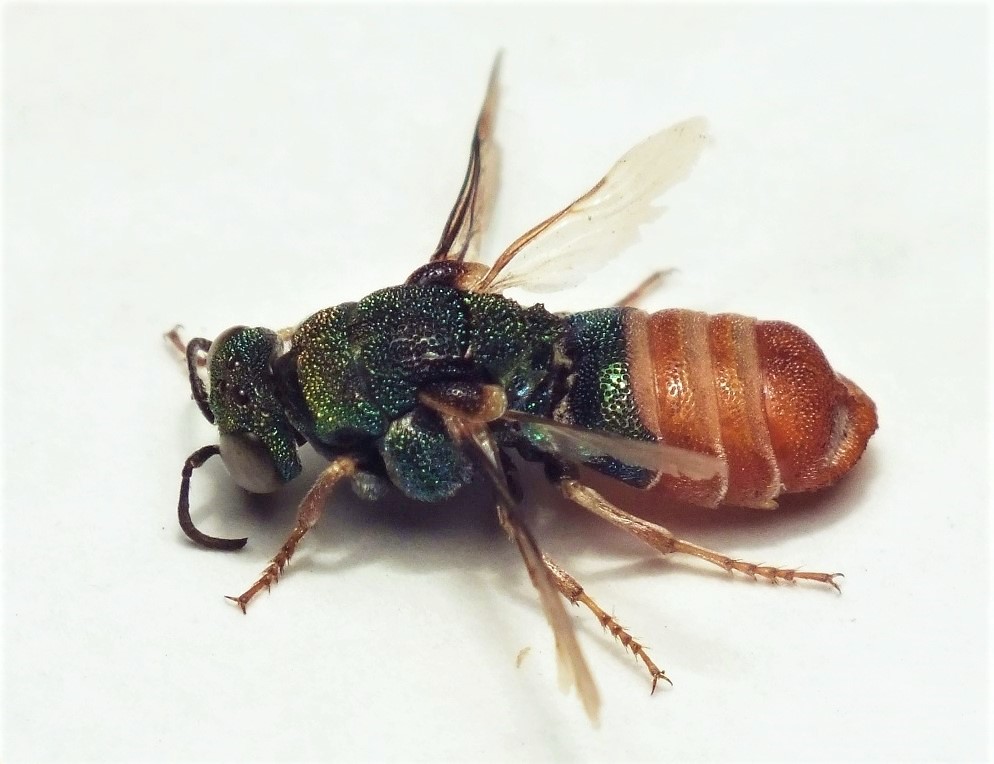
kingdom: Animalia
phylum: Arthropoda
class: Insecta
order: Hymenoptera
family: Chrysididae
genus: Parnopes
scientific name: Parnopes grandior
